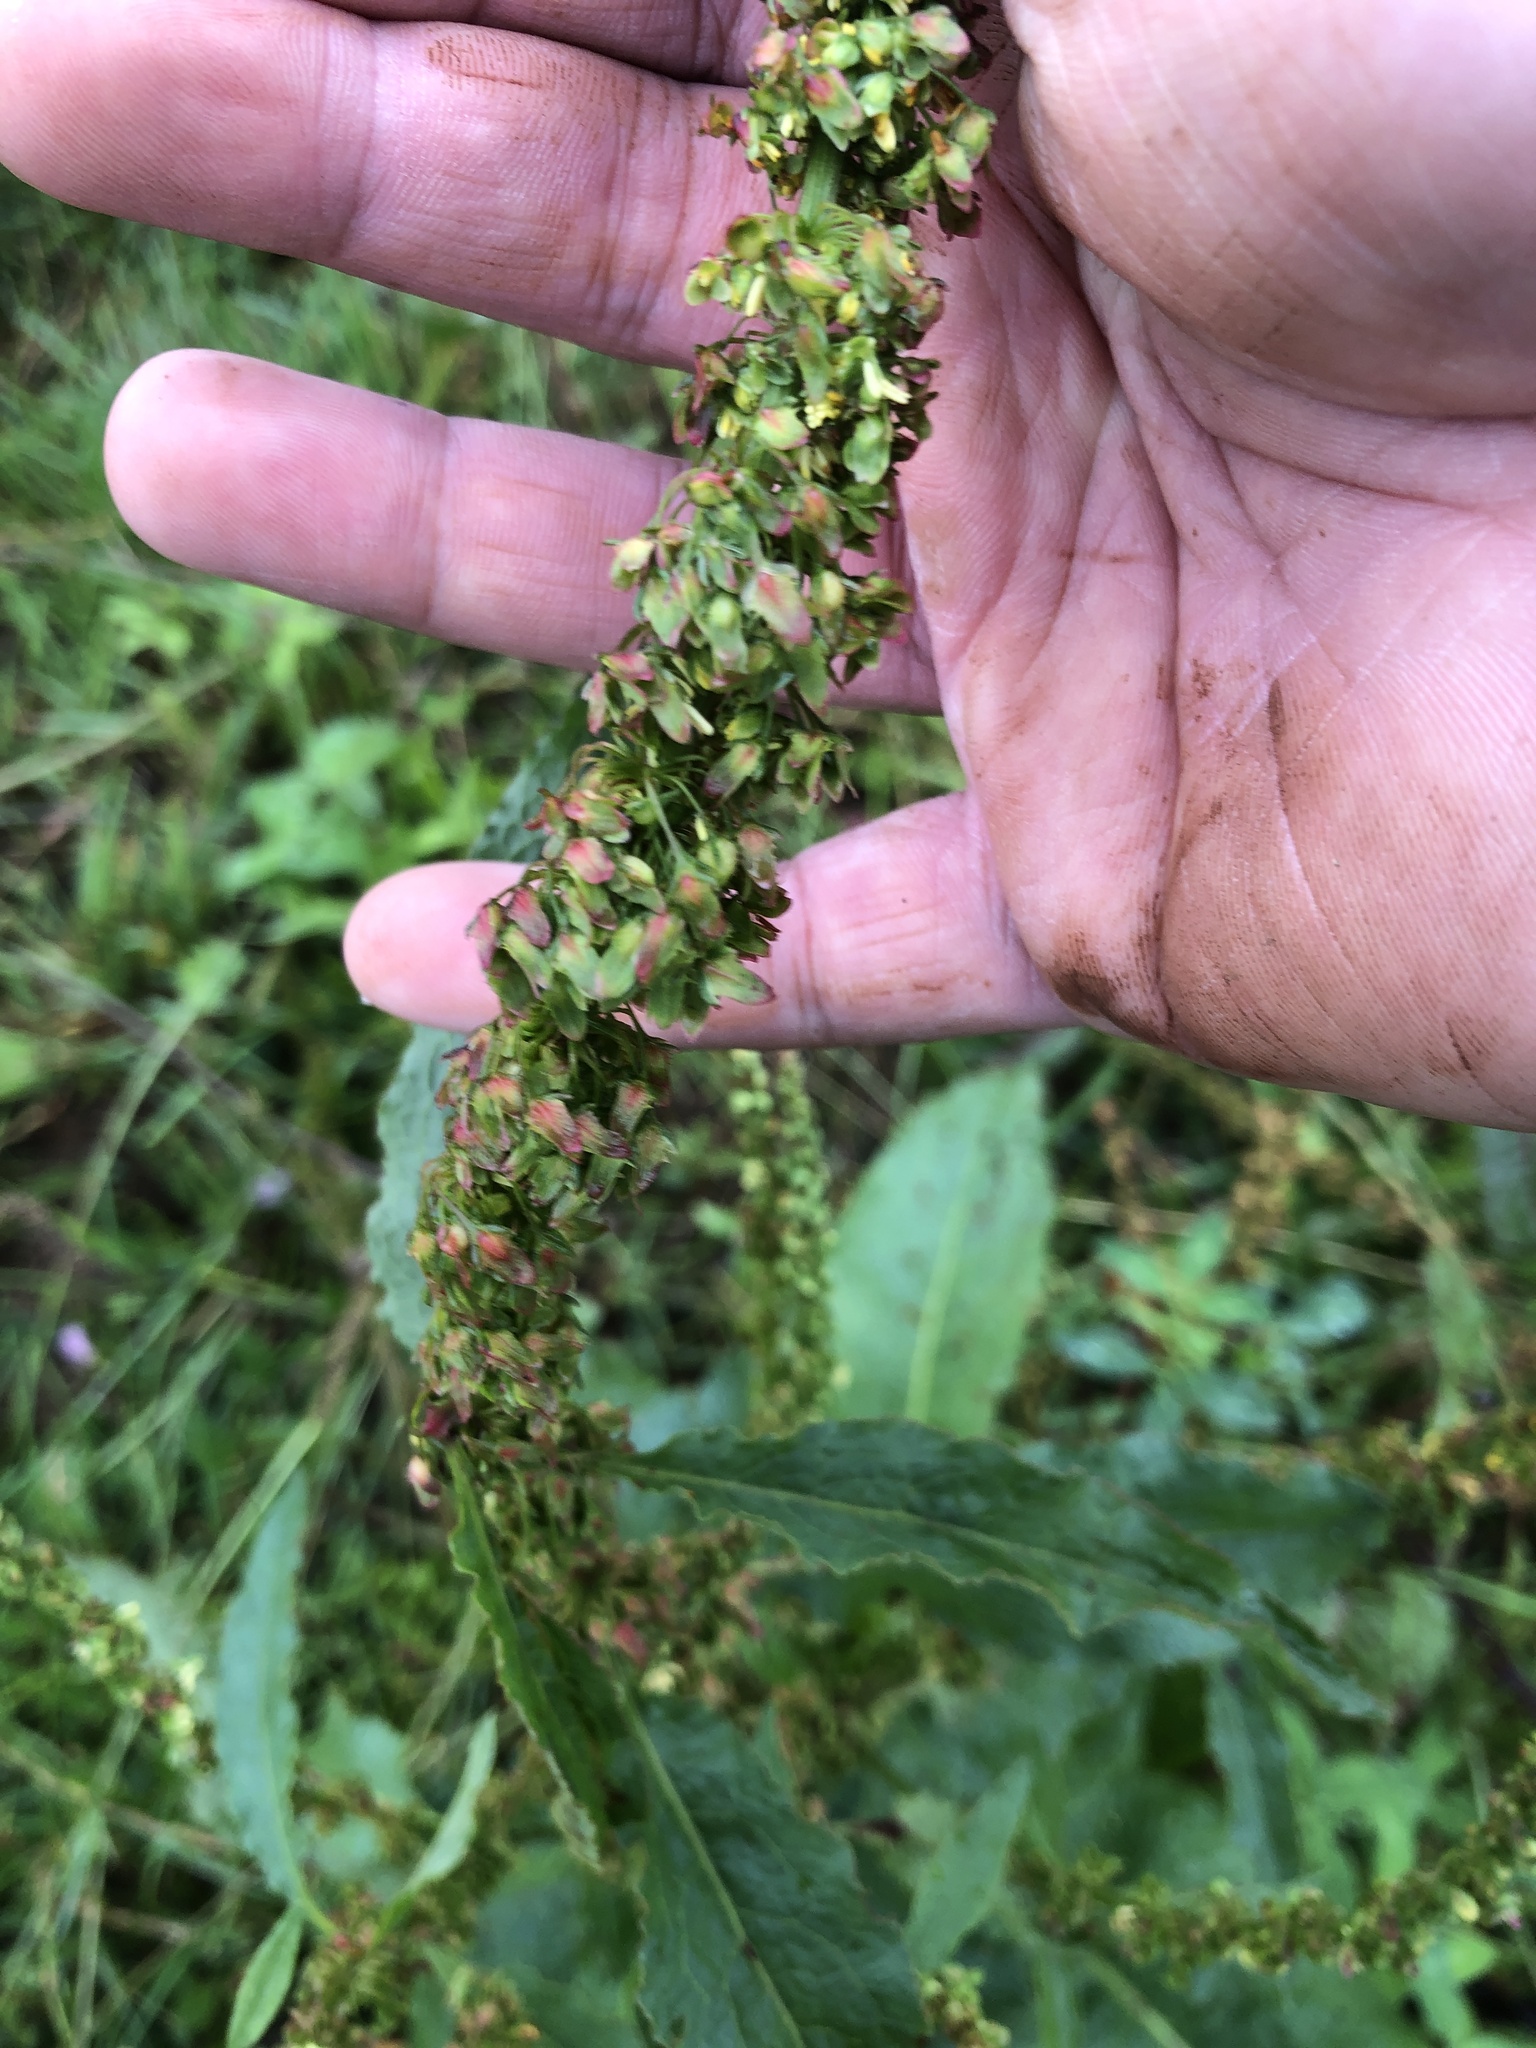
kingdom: Plantae
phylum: Tracheophyta
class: Magnoliopsida
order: Caryophyllales
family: Polygonaceae
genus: Rumex
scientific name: Rumex crispus
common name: Curled dock
